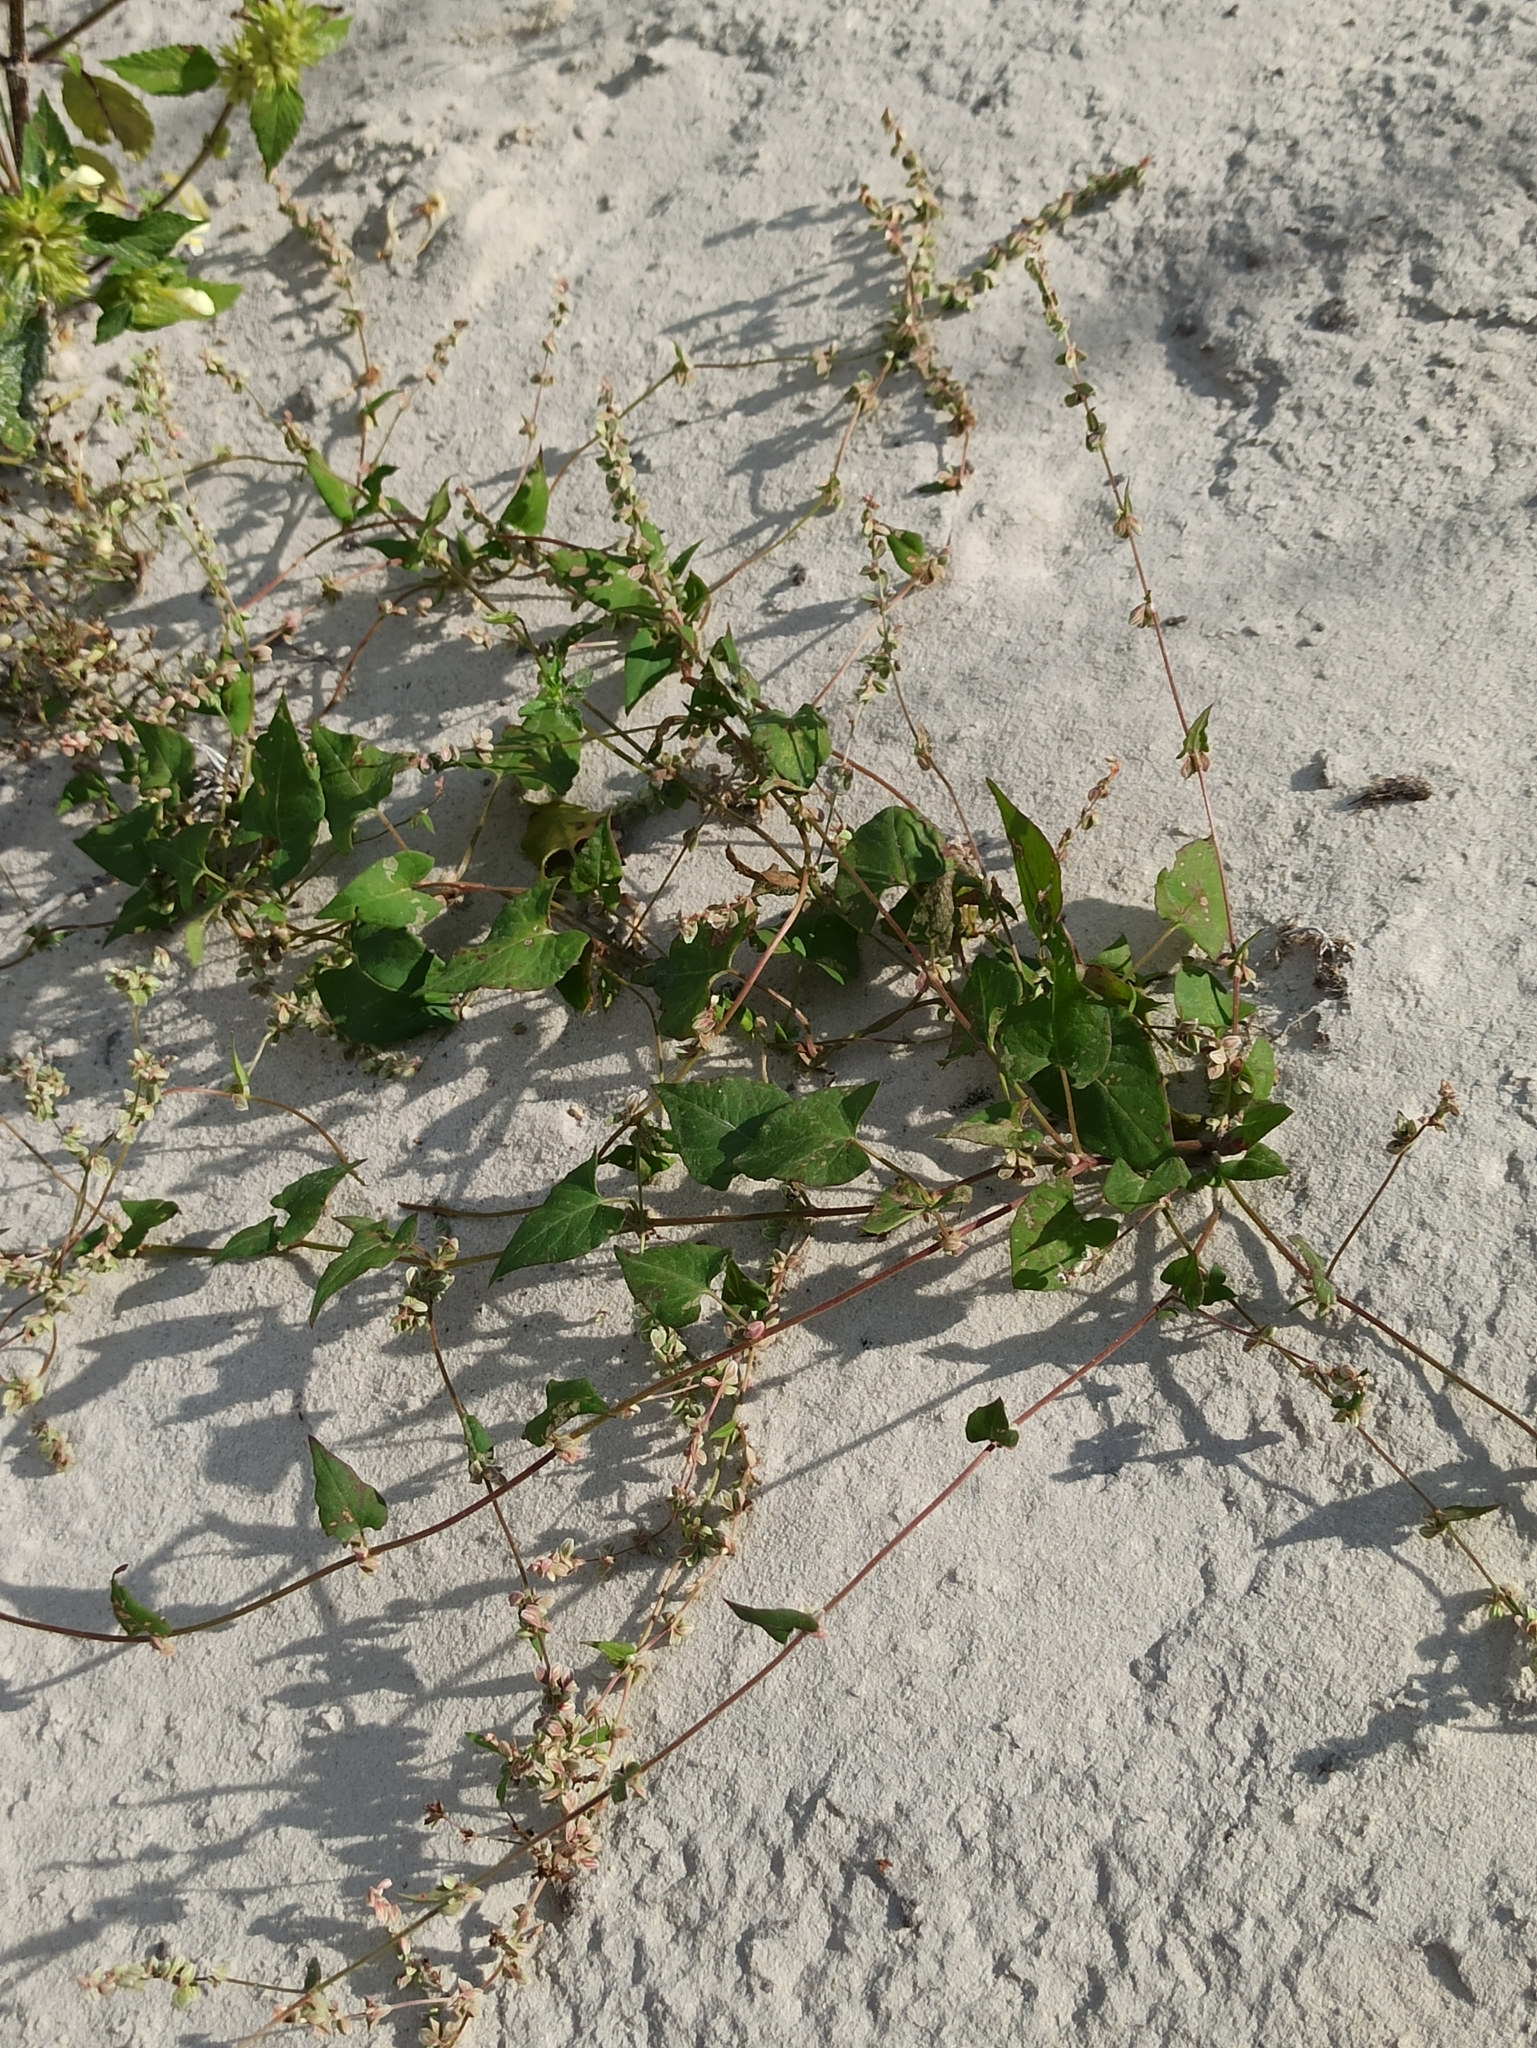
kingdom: Plantae
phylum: Tracheophyta
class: Magnoliopsida
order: Caryophyllales
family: Polygonaceae
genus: Fallopia
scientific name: Fallopia convolvulus
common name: Black bindweed
